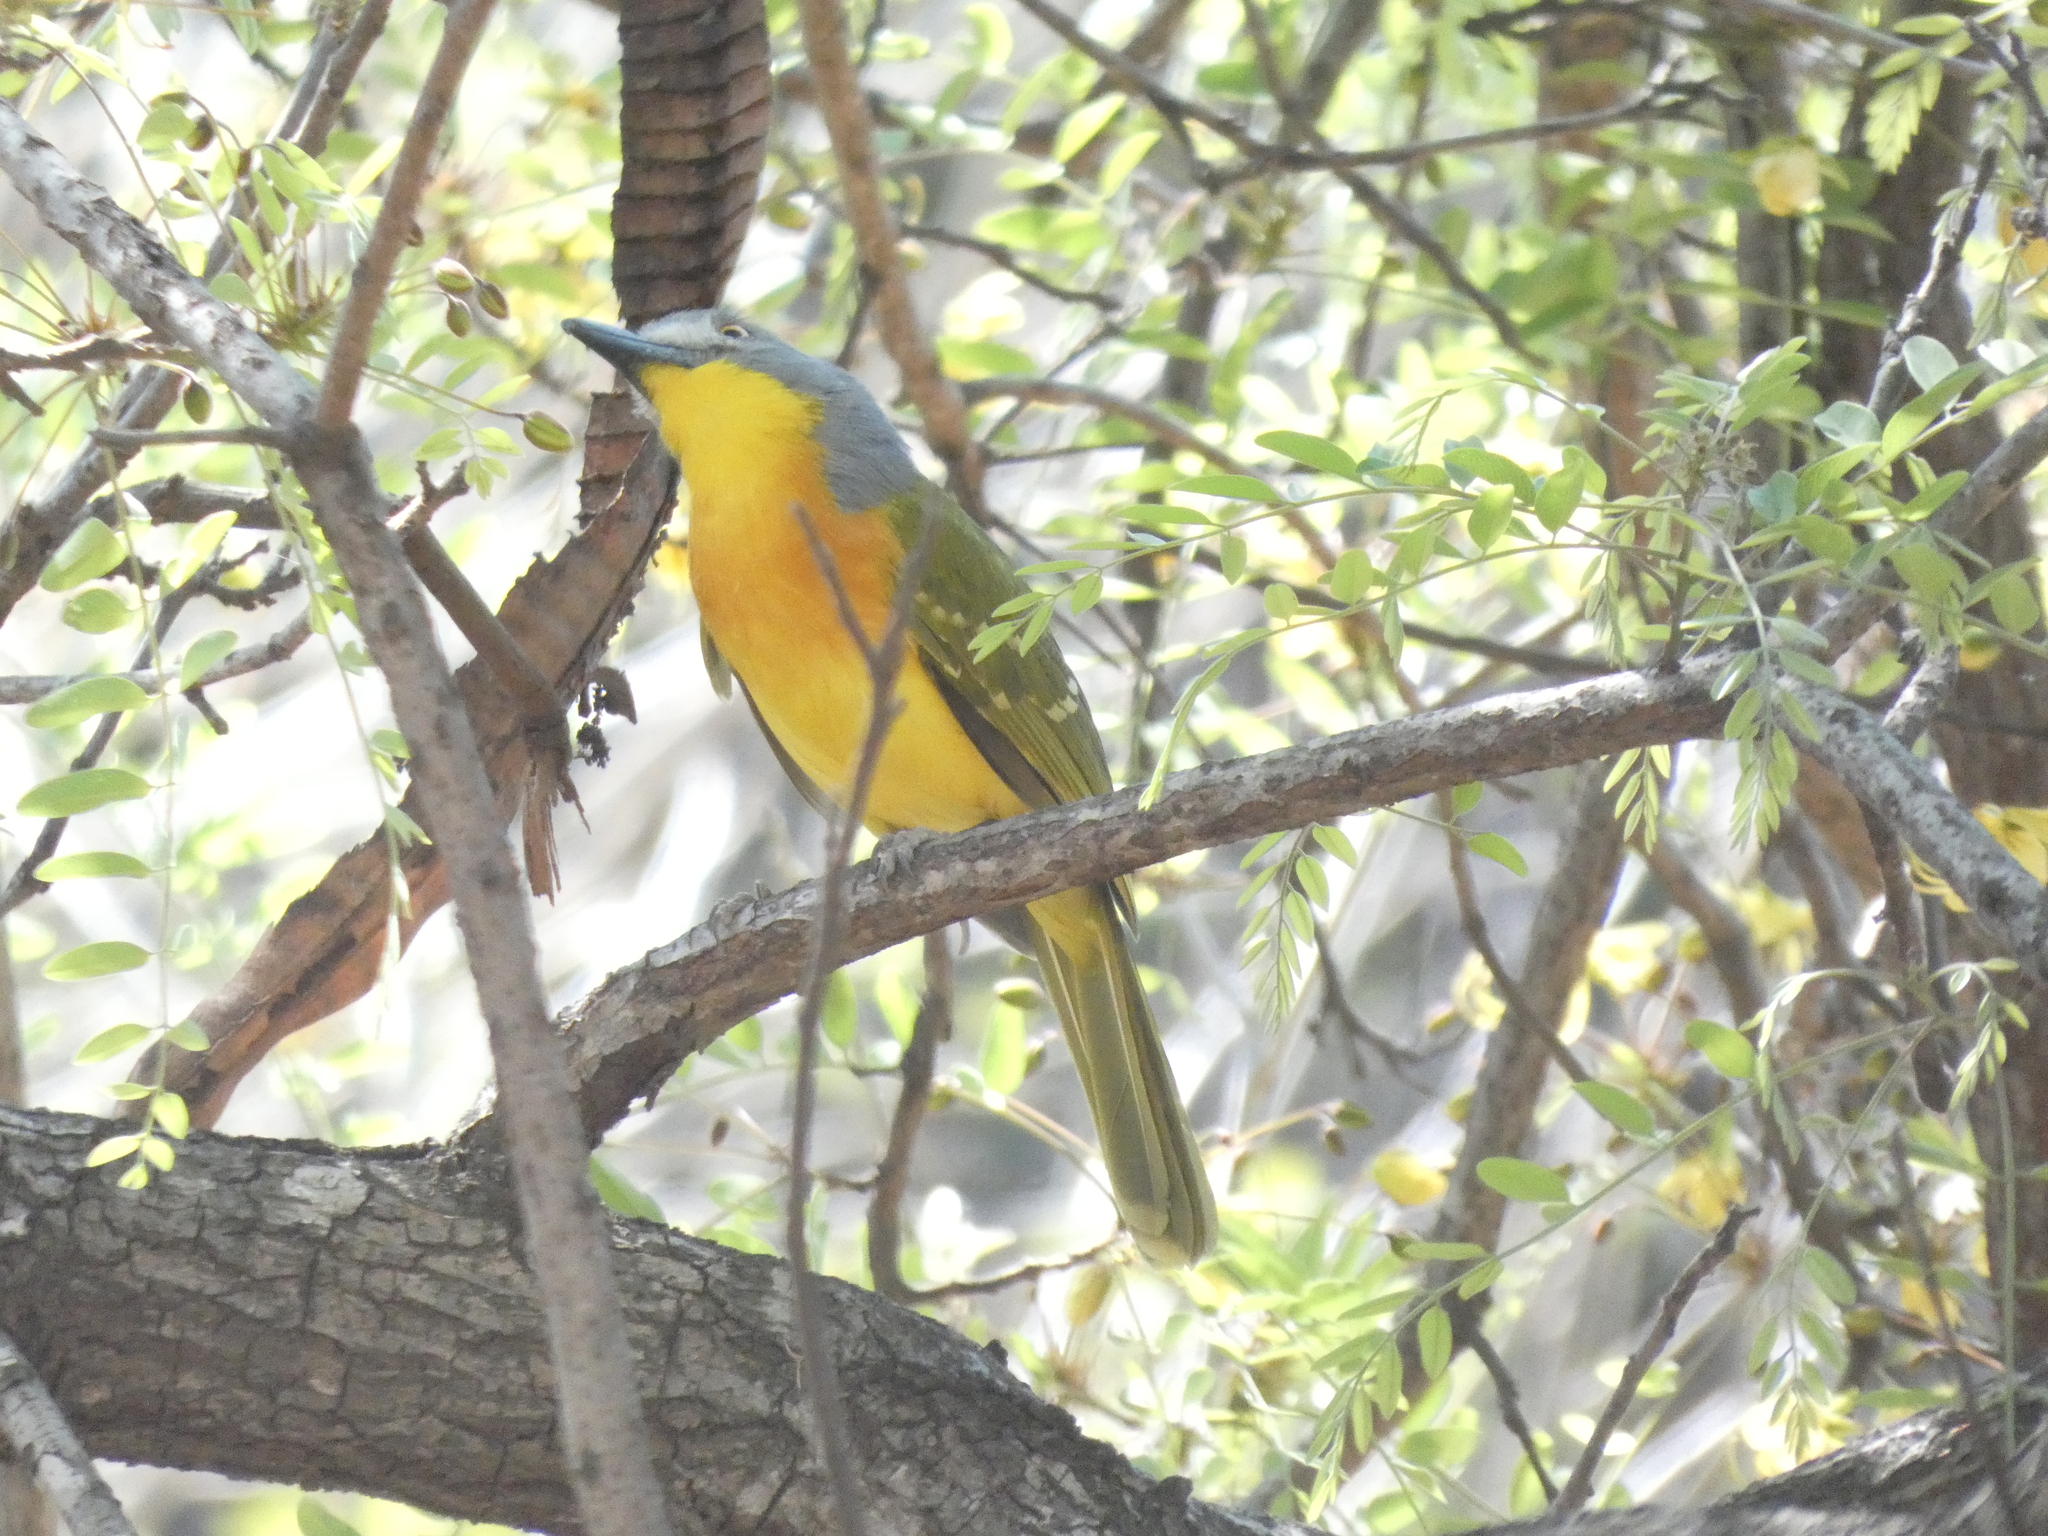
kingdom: Animalia
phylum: Chordata
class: Aves
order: Passeriformes
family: Malaconotidae
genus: Malaconotus
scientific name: Malaconotus blanchoti
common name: Grey-headed bushshrike
